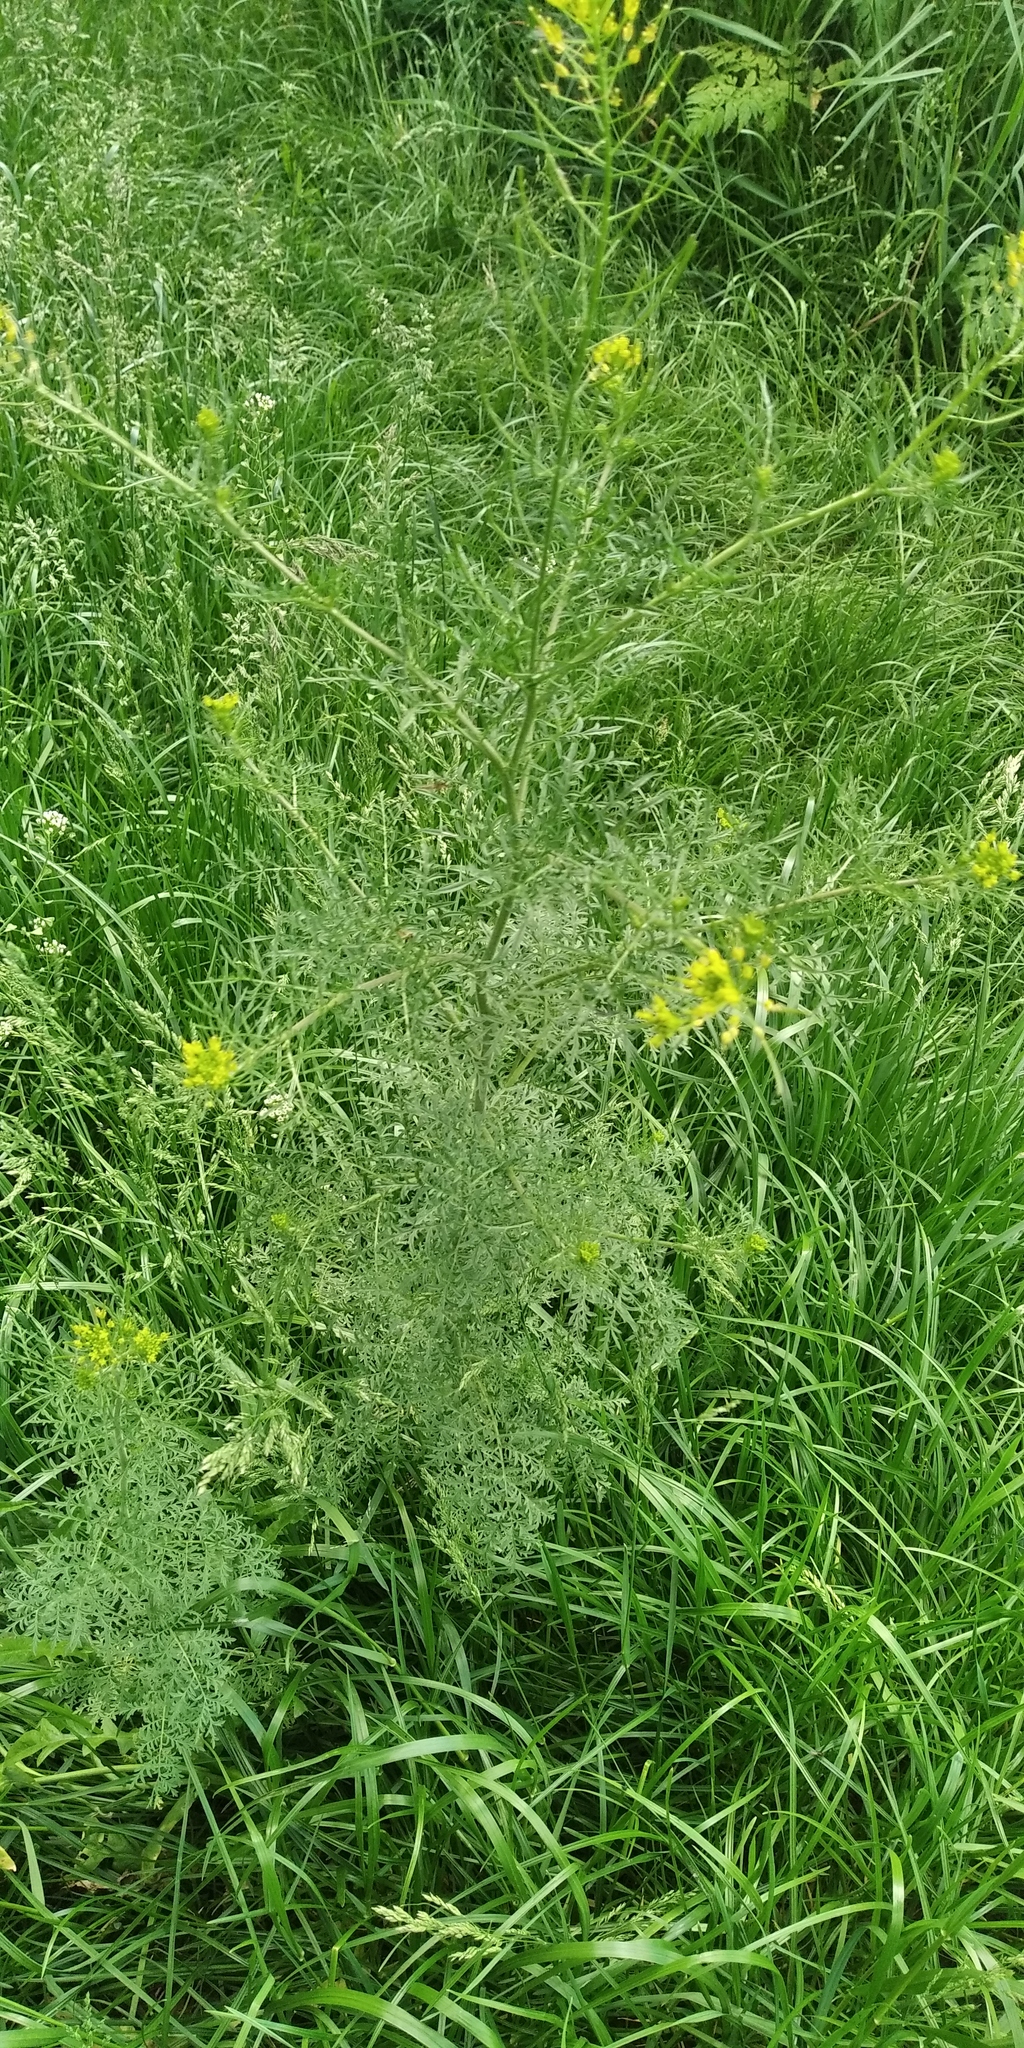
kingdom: Plantae
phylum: Tracheophyta
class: Magnoliopsida
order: Brassicales
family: Brassicaceae
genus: Descurainia
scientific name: Descurainia sophia
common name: Flixweed
